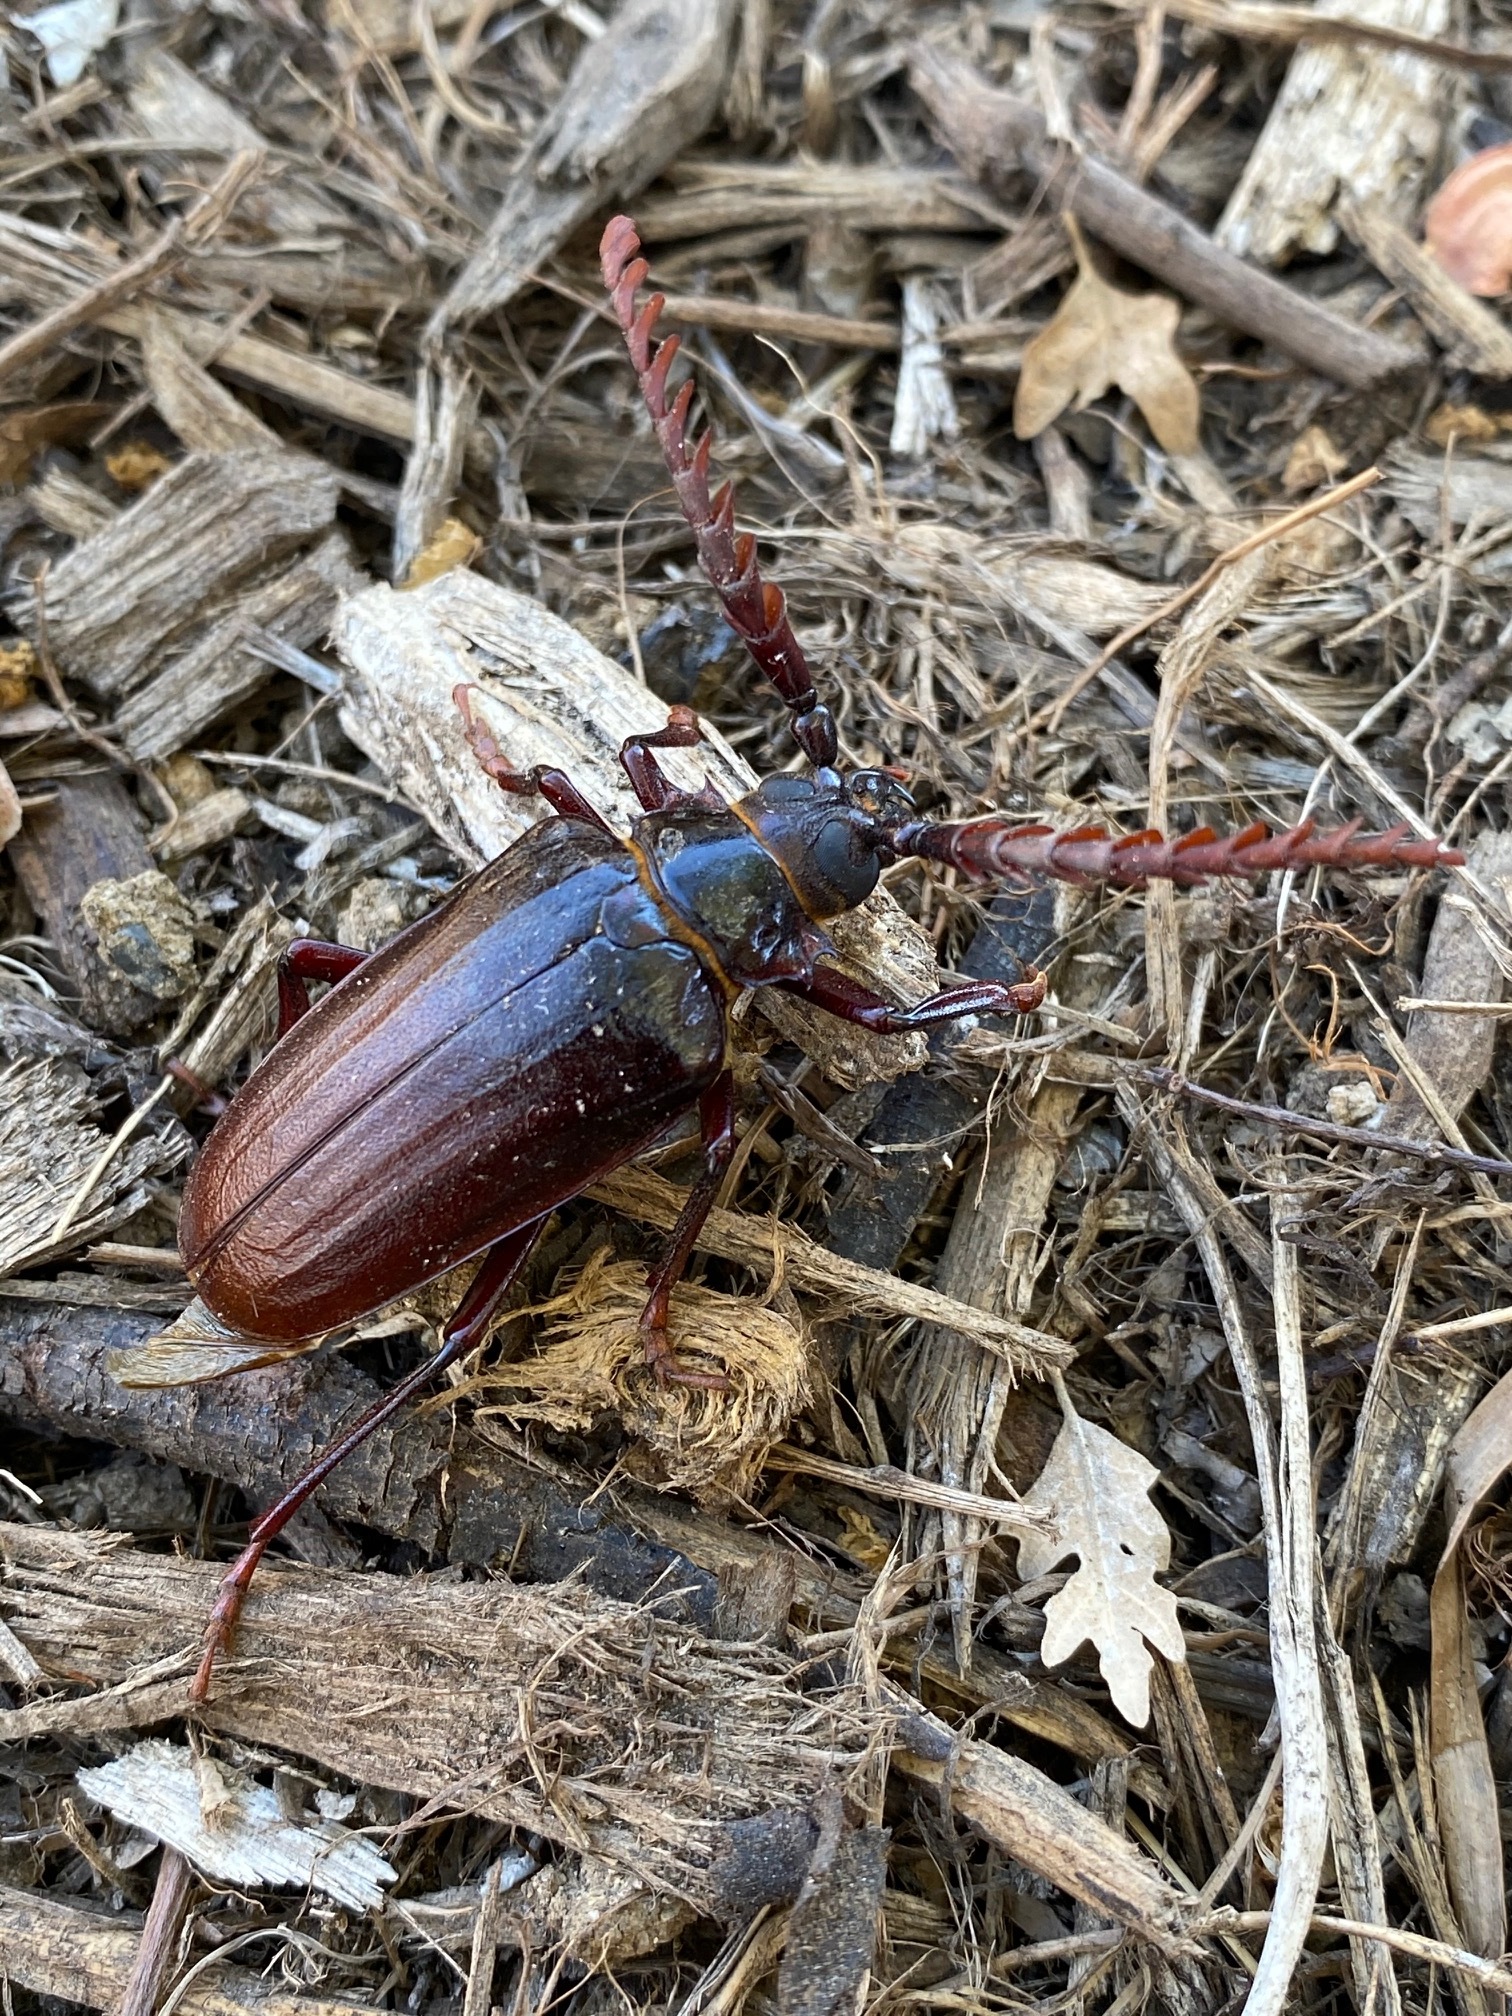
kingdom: Animalia
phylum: Arthropoda
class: Insecta
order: Coleoptera
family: Cerambycidae
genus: Prionus
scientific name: Prionus californicus
